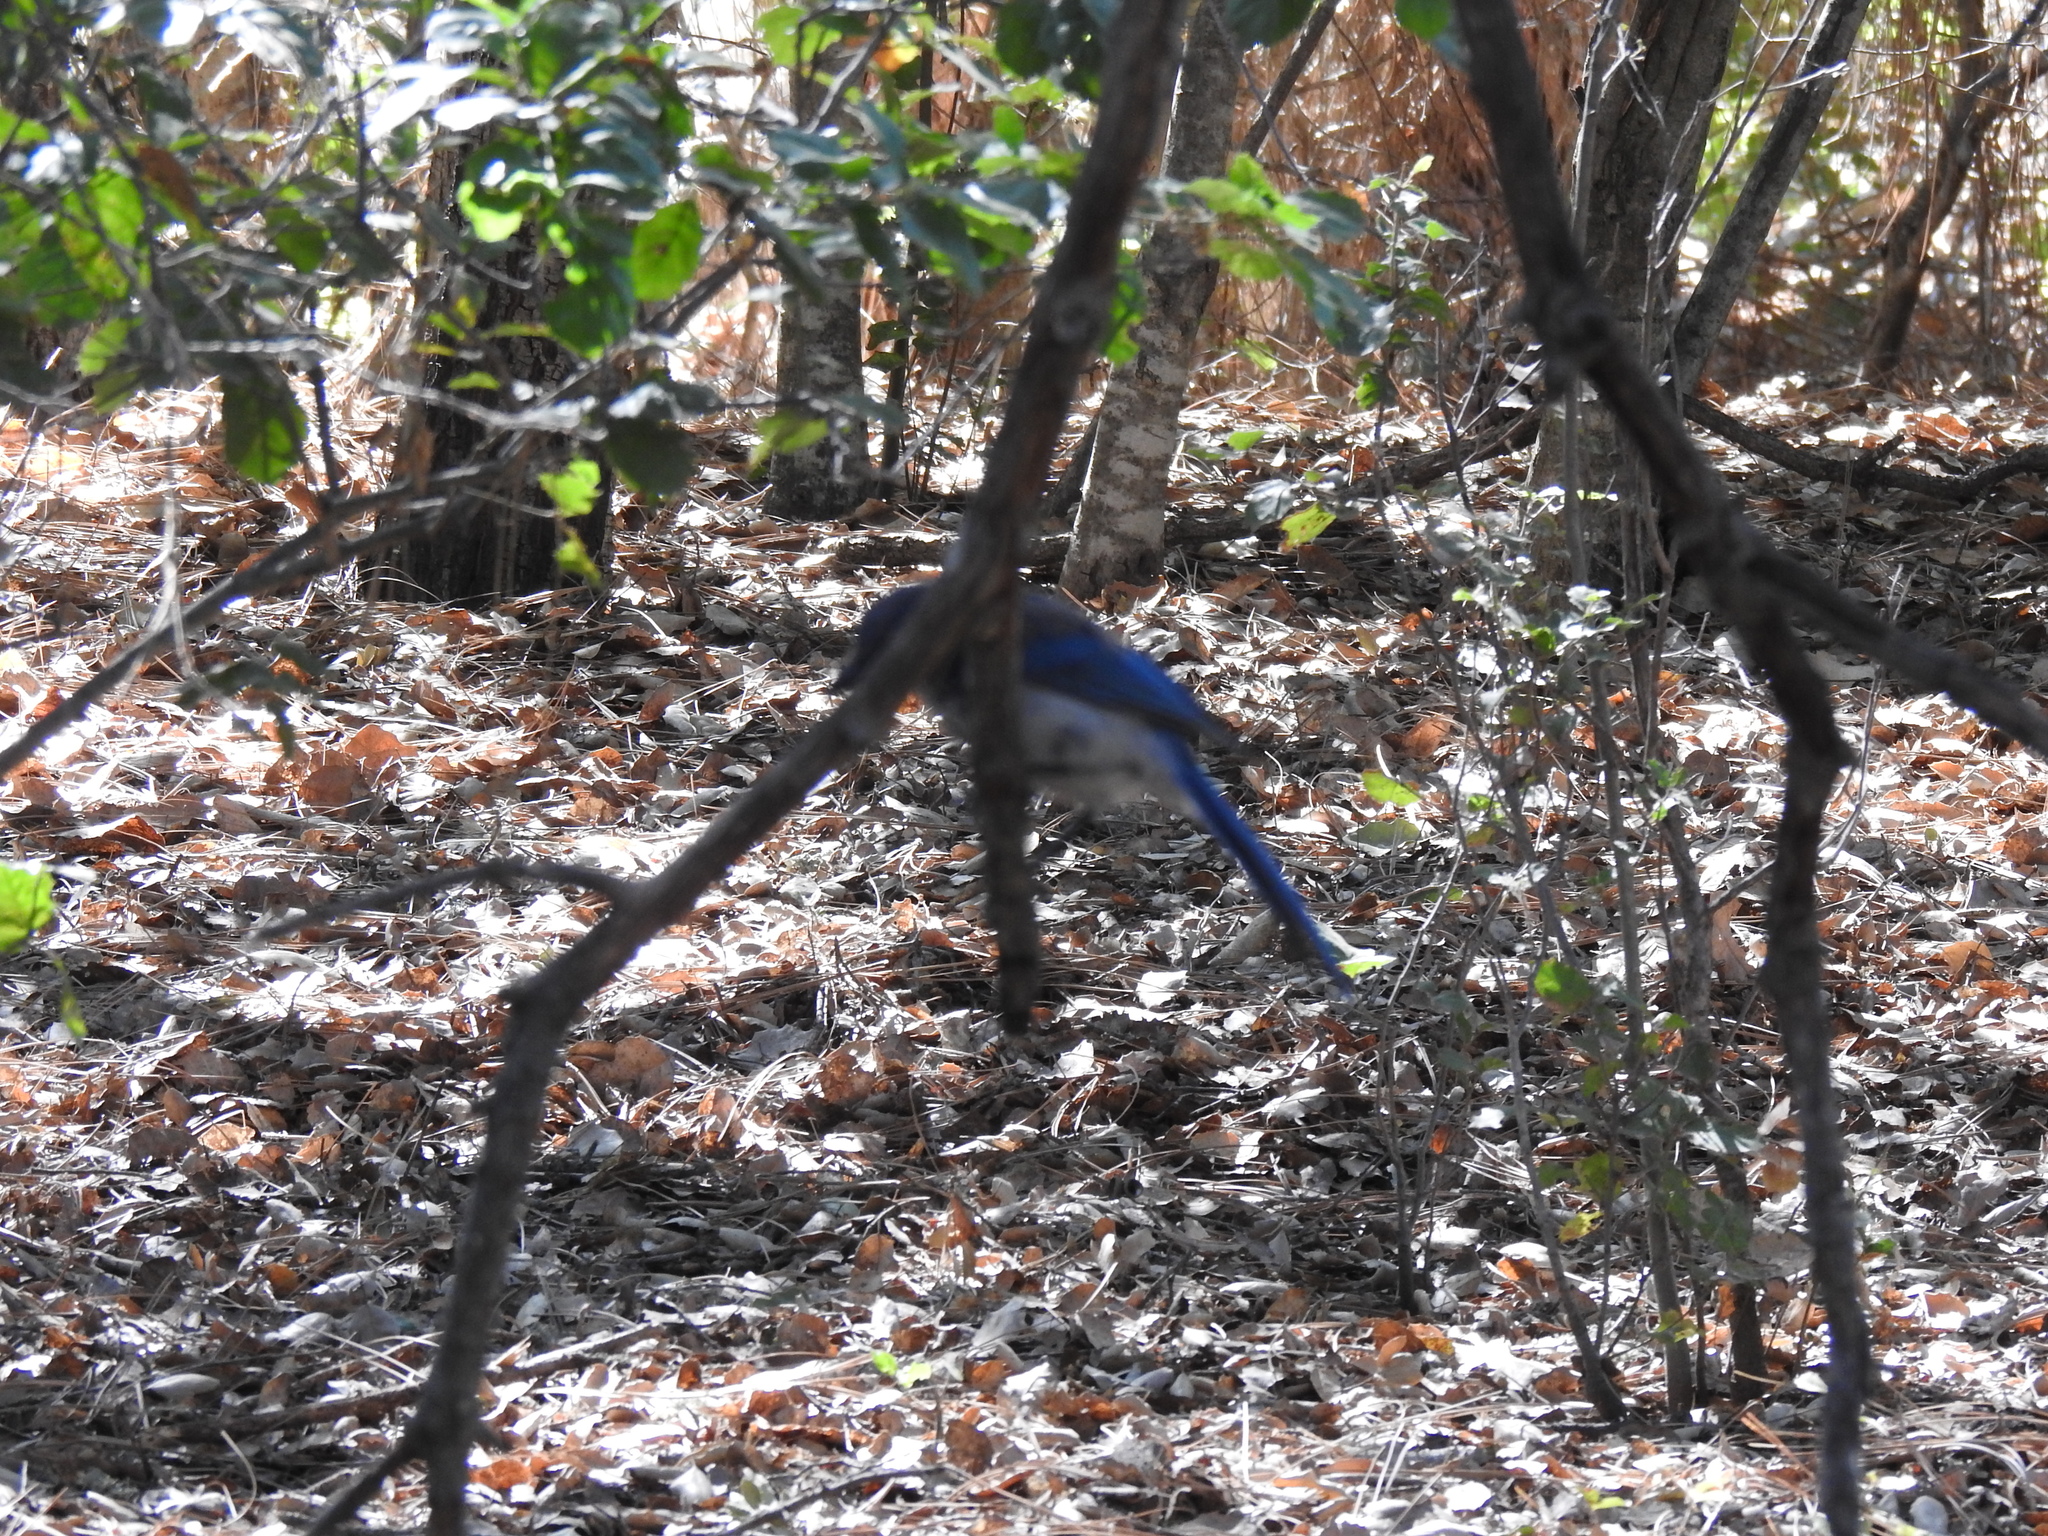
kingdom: Animalia
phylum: Chordata
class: Aves
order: Passeriformes
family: Corvidae
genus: Aphelocoma
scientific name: Aphelocoma californica
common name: California scrub-jay
